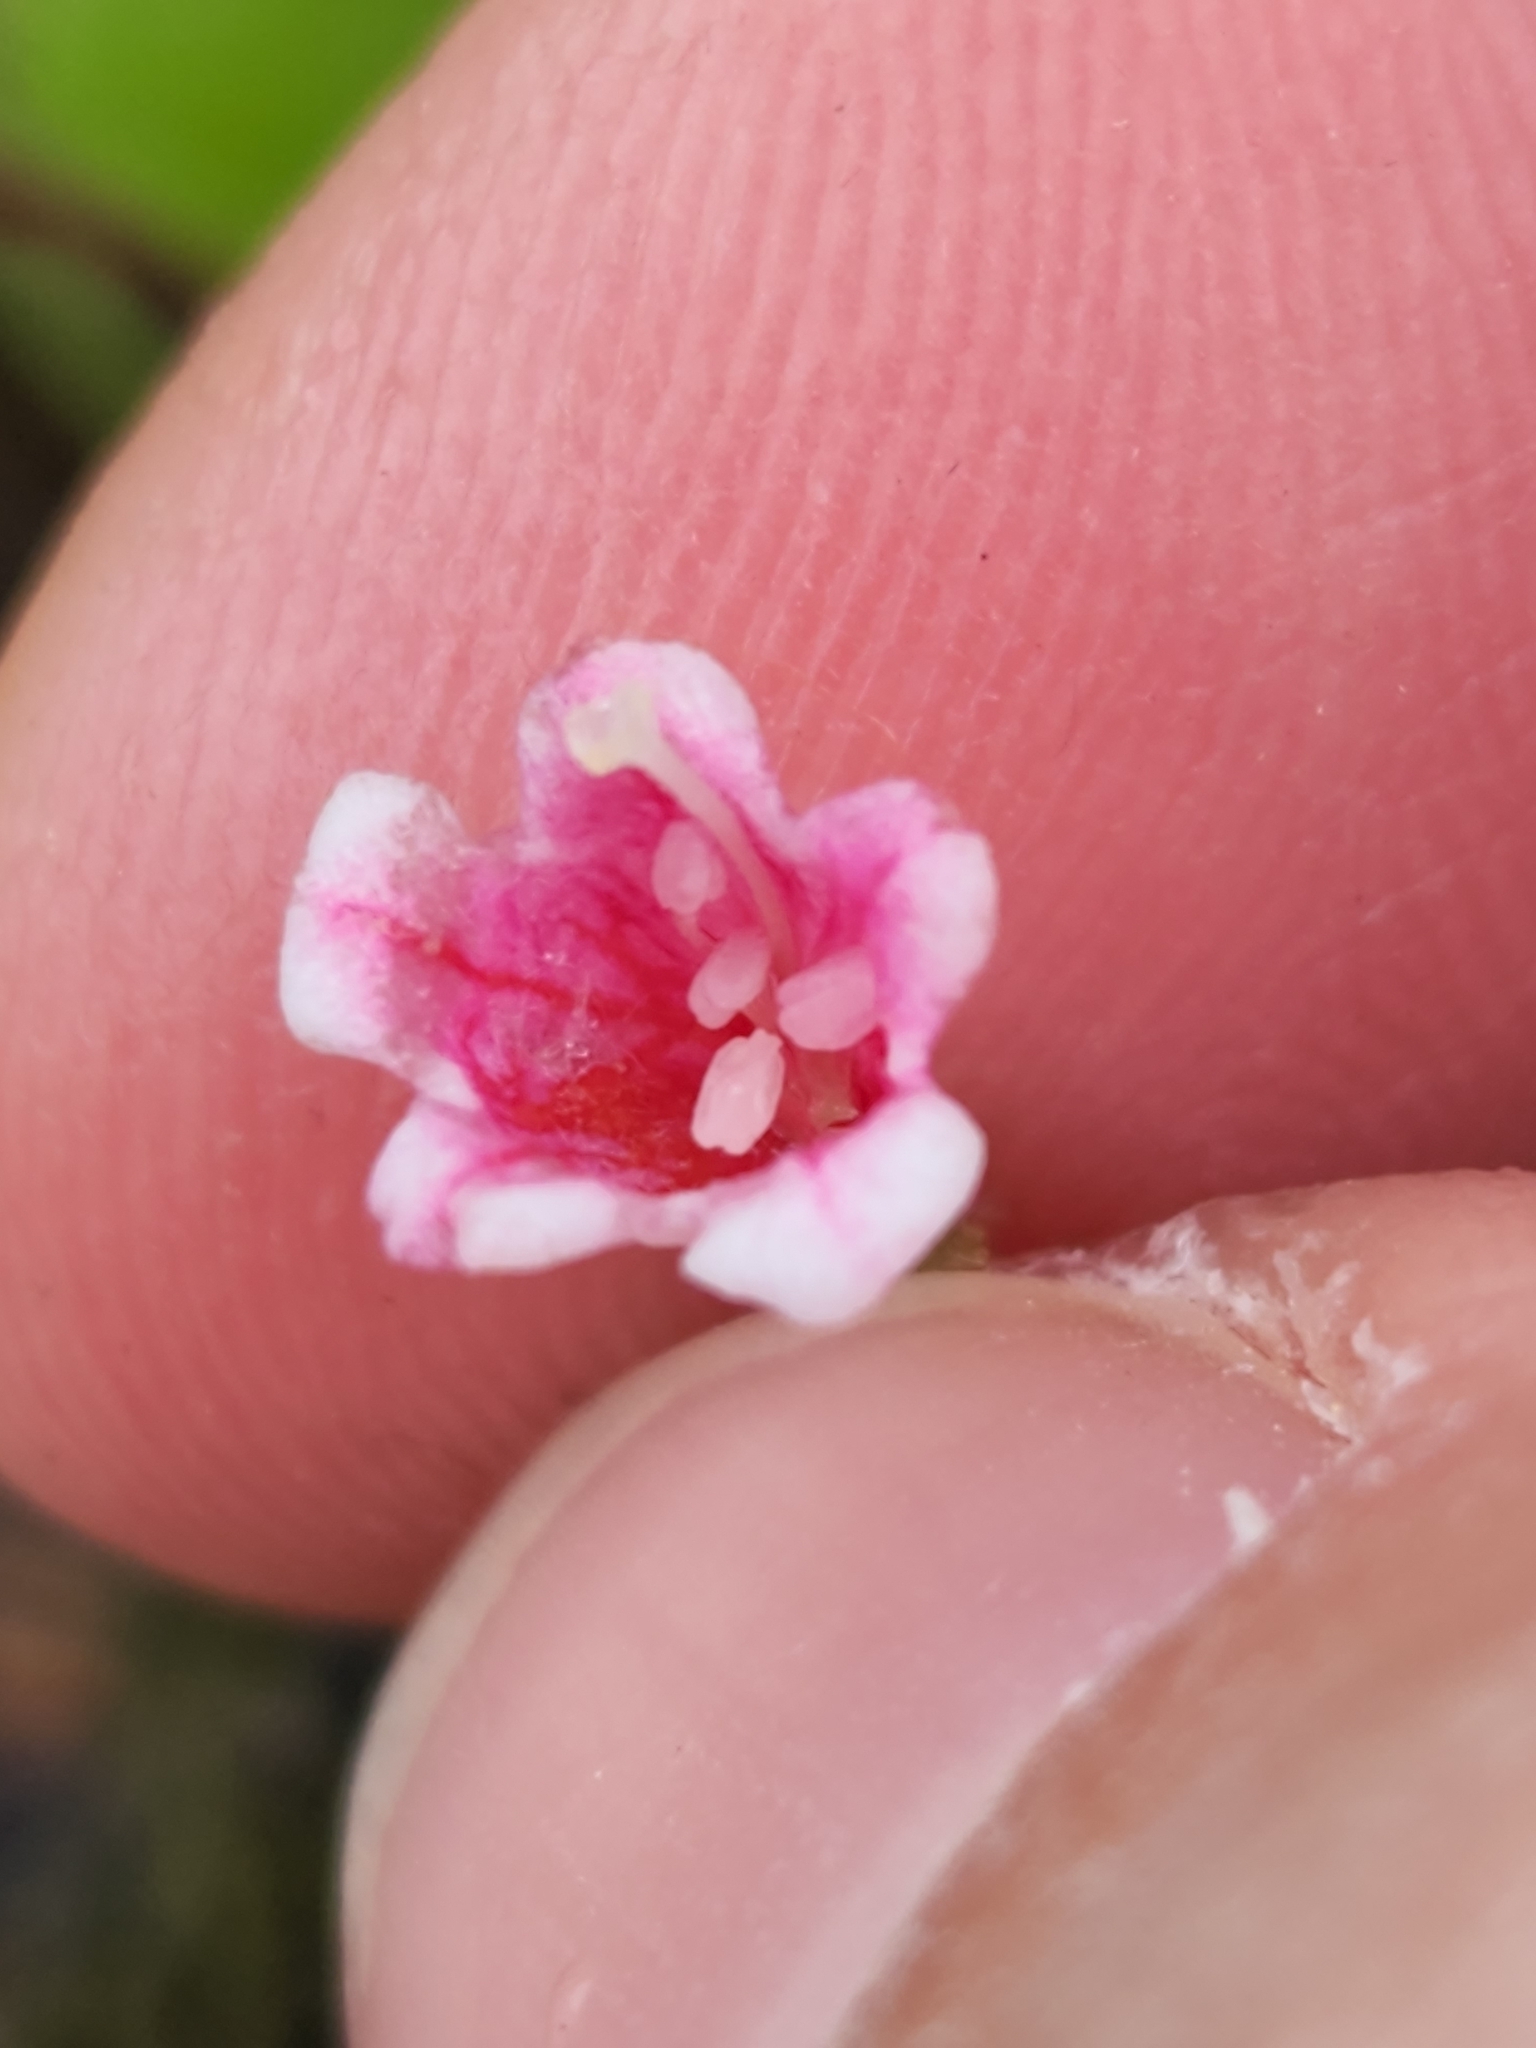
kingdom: Plantae
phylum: Tracheophyta
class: Magnoliopsida
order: Dipsacales
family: Caprifoliaceae
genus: Linnaea
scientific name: Linnaea borealis
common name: Twinflower
